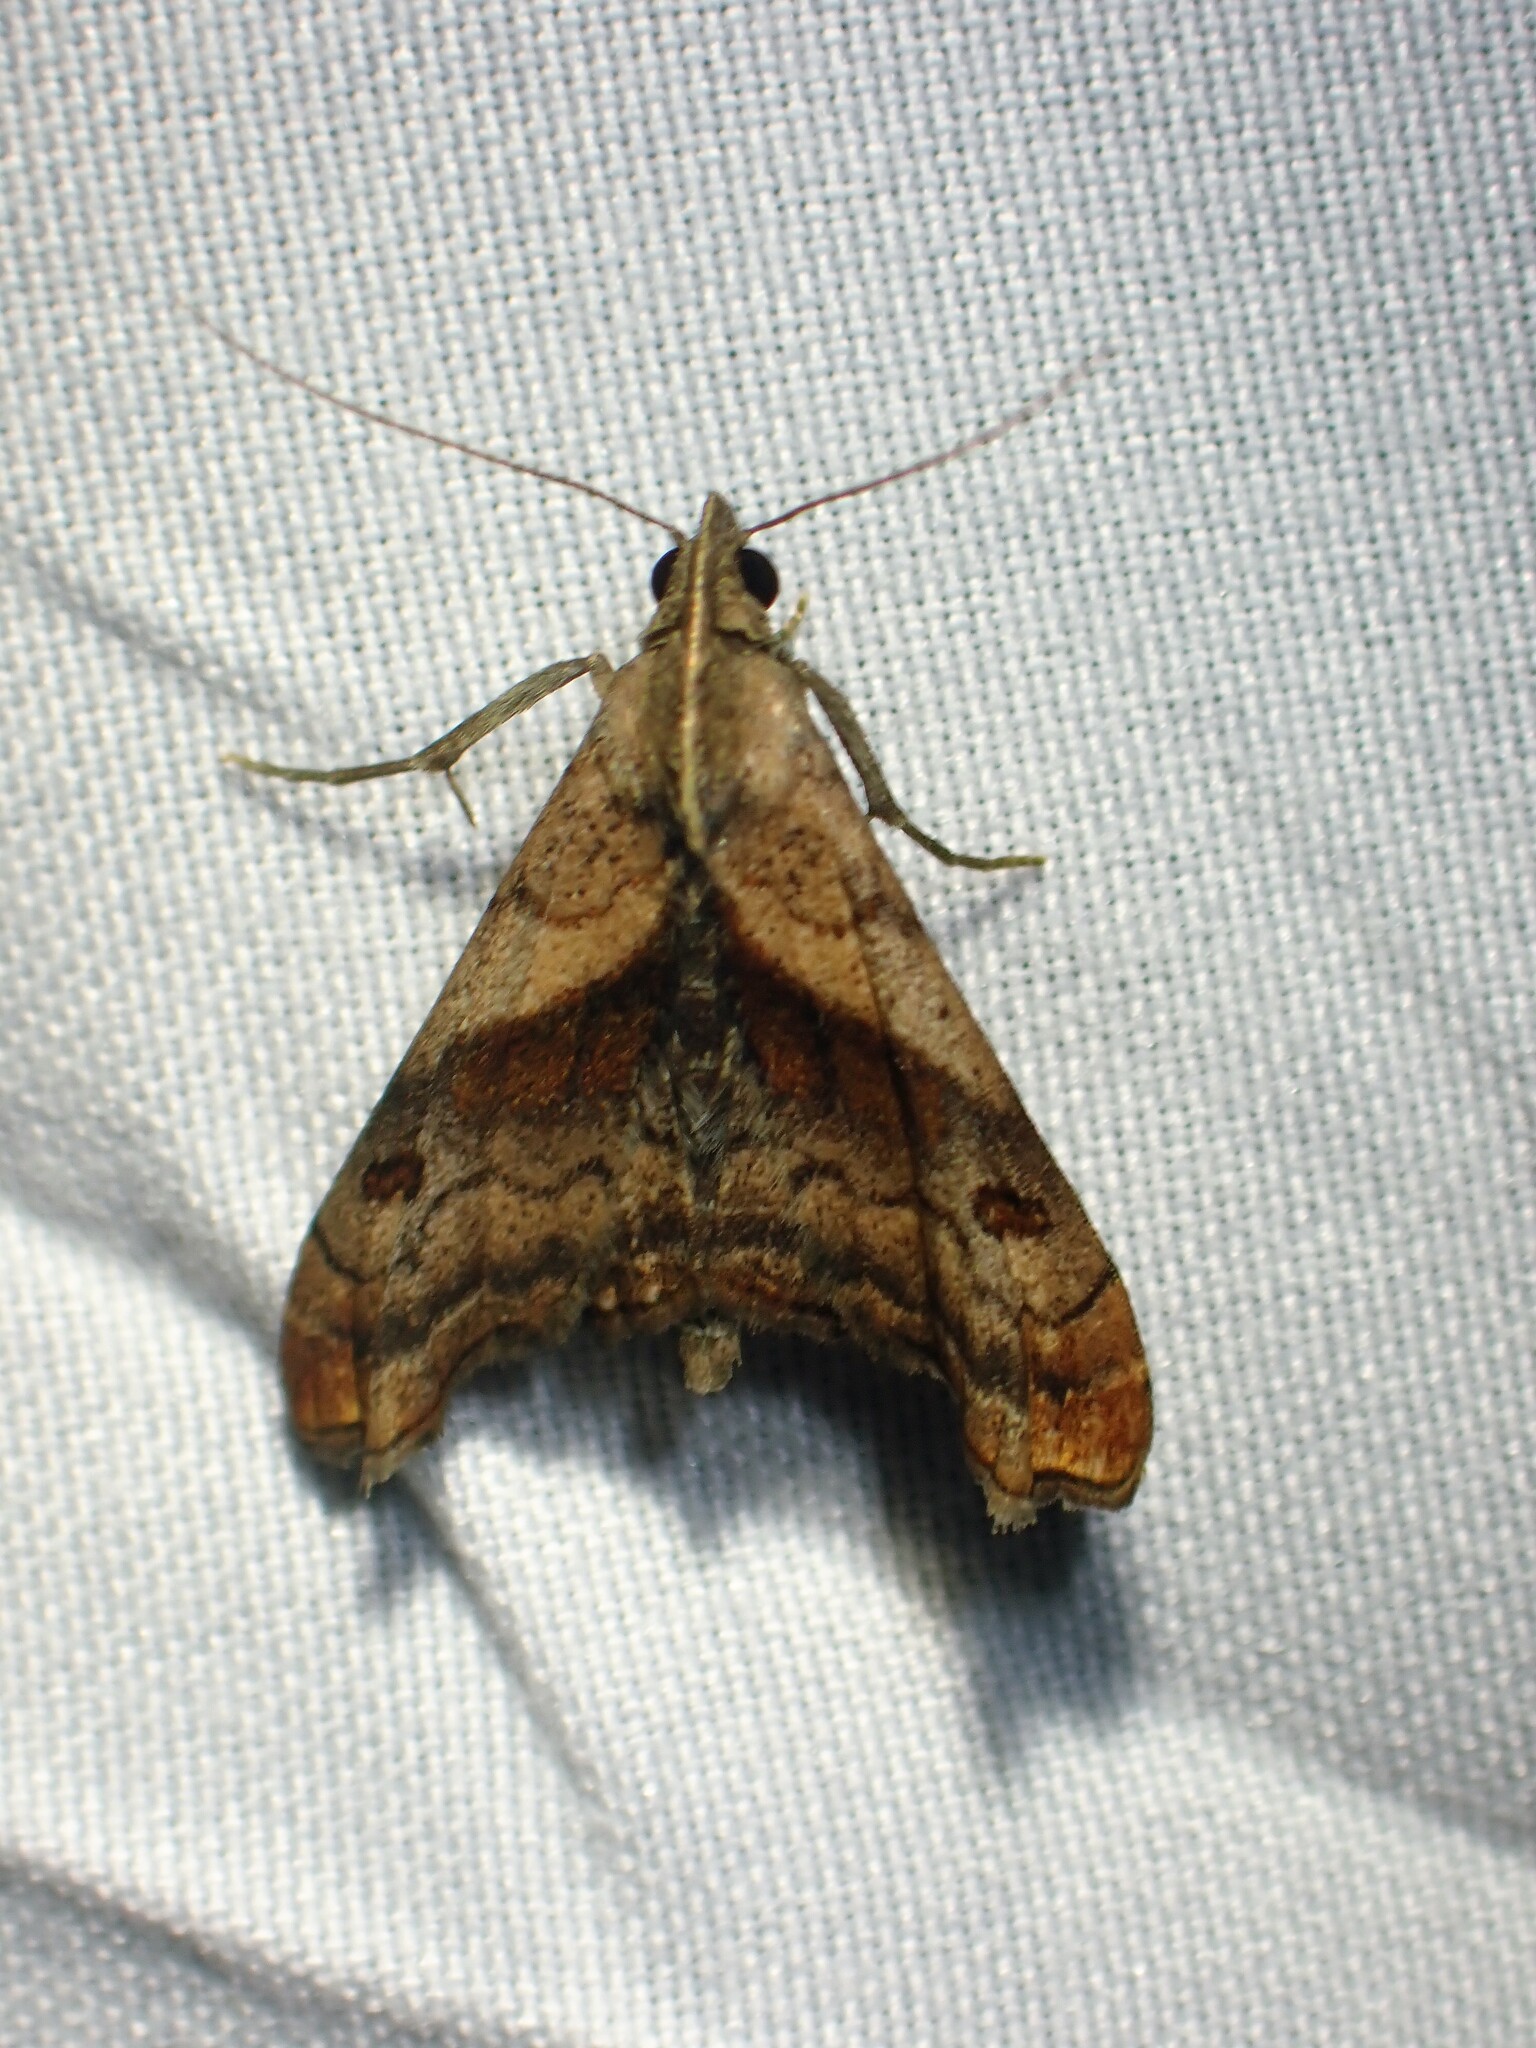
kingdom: Animalia
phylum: Arthropoda
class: Insecta
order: Lepidoptera
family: Erebidae
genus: Palthis
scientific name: Palthis angulalis
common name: Dark-spotted palthis moth
